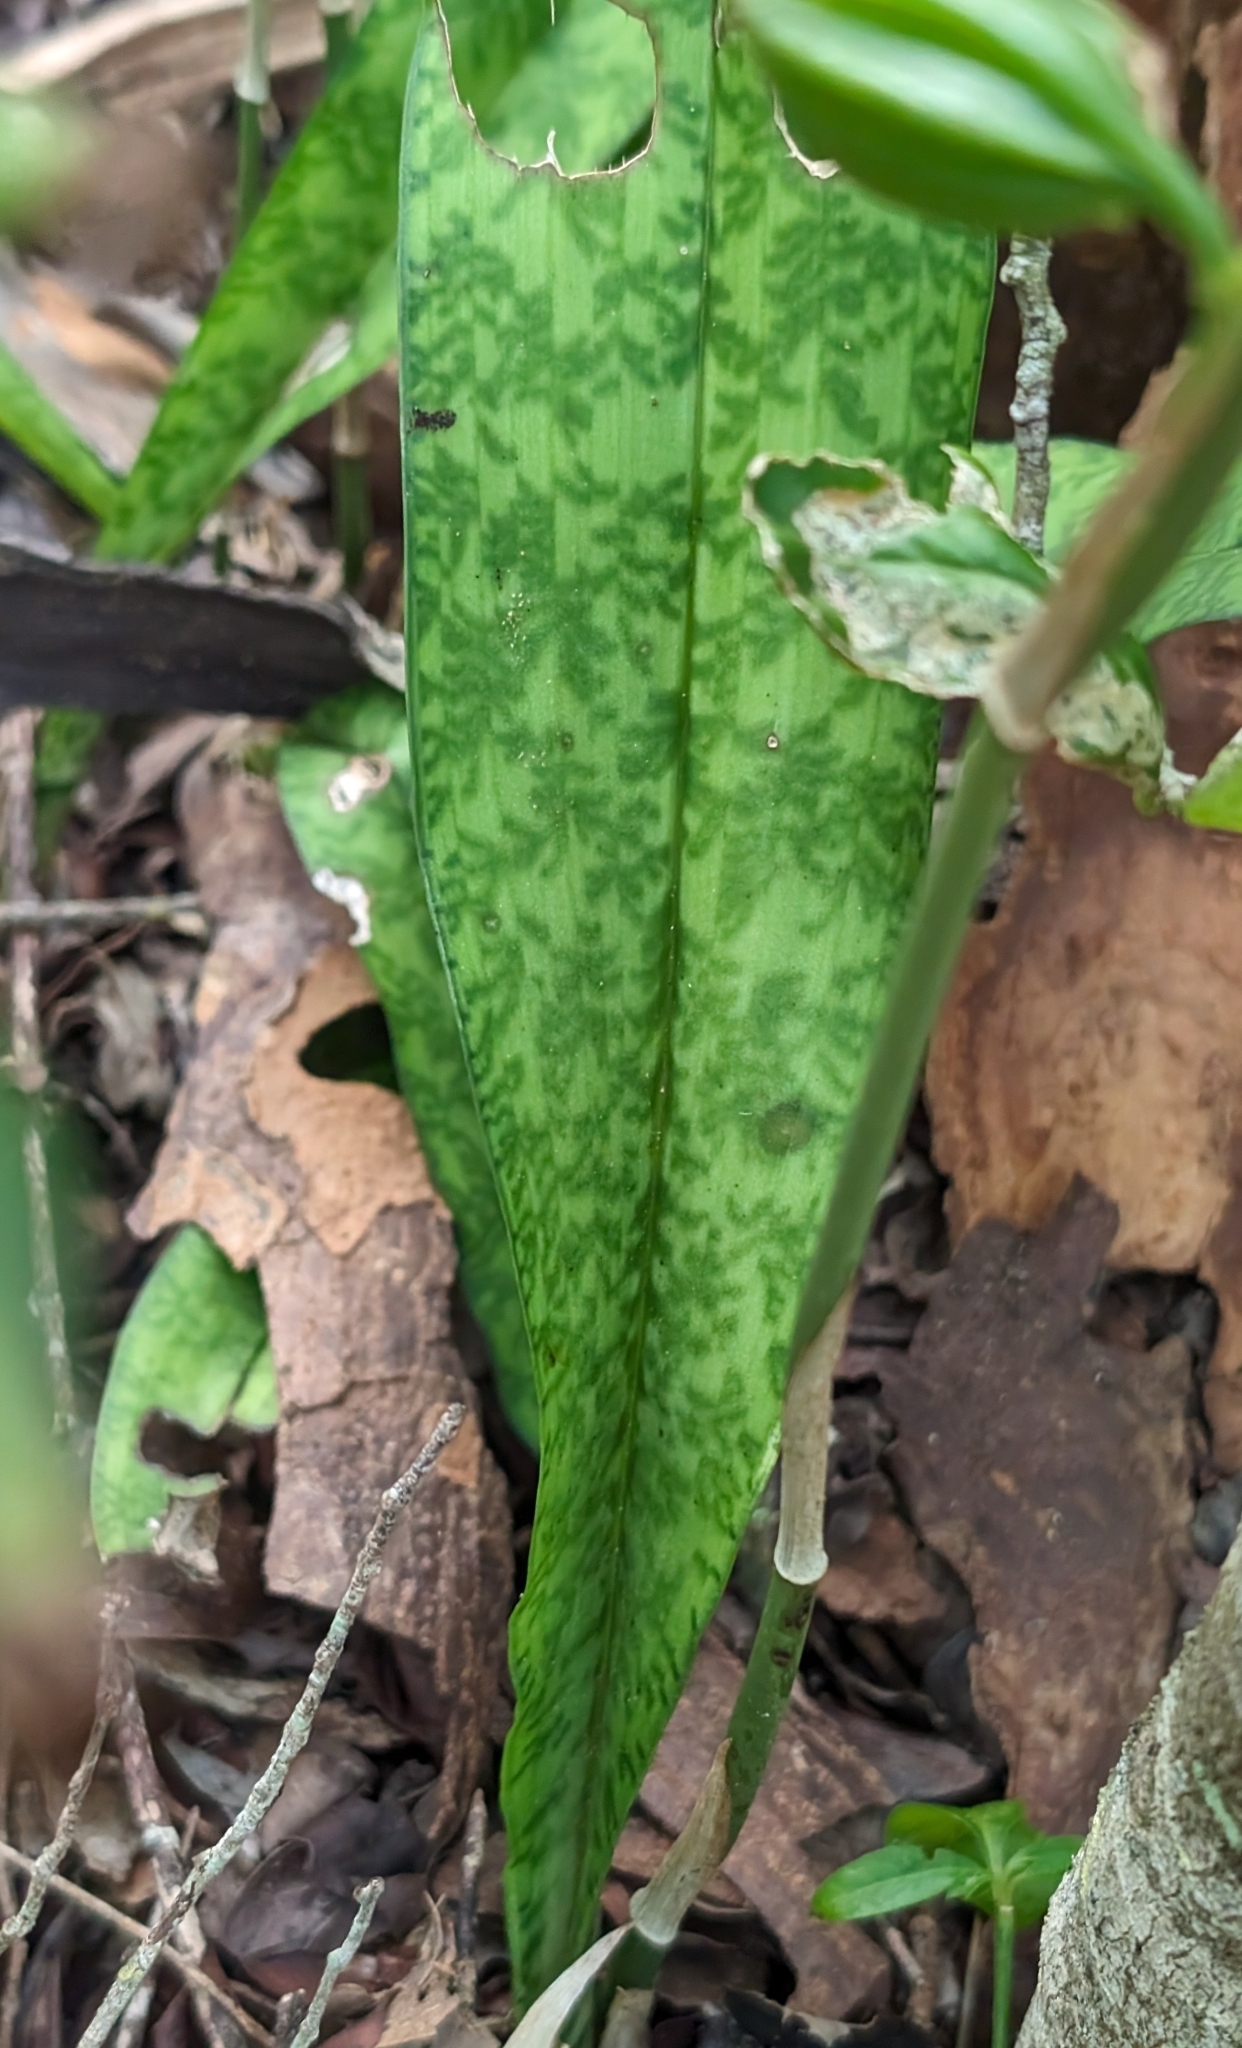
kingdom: Plantae
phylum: Tracheophyta
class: Liliopsida
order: Asparagales
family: Orchidaceae
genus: Eulophia
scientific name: Eulophia maculata
